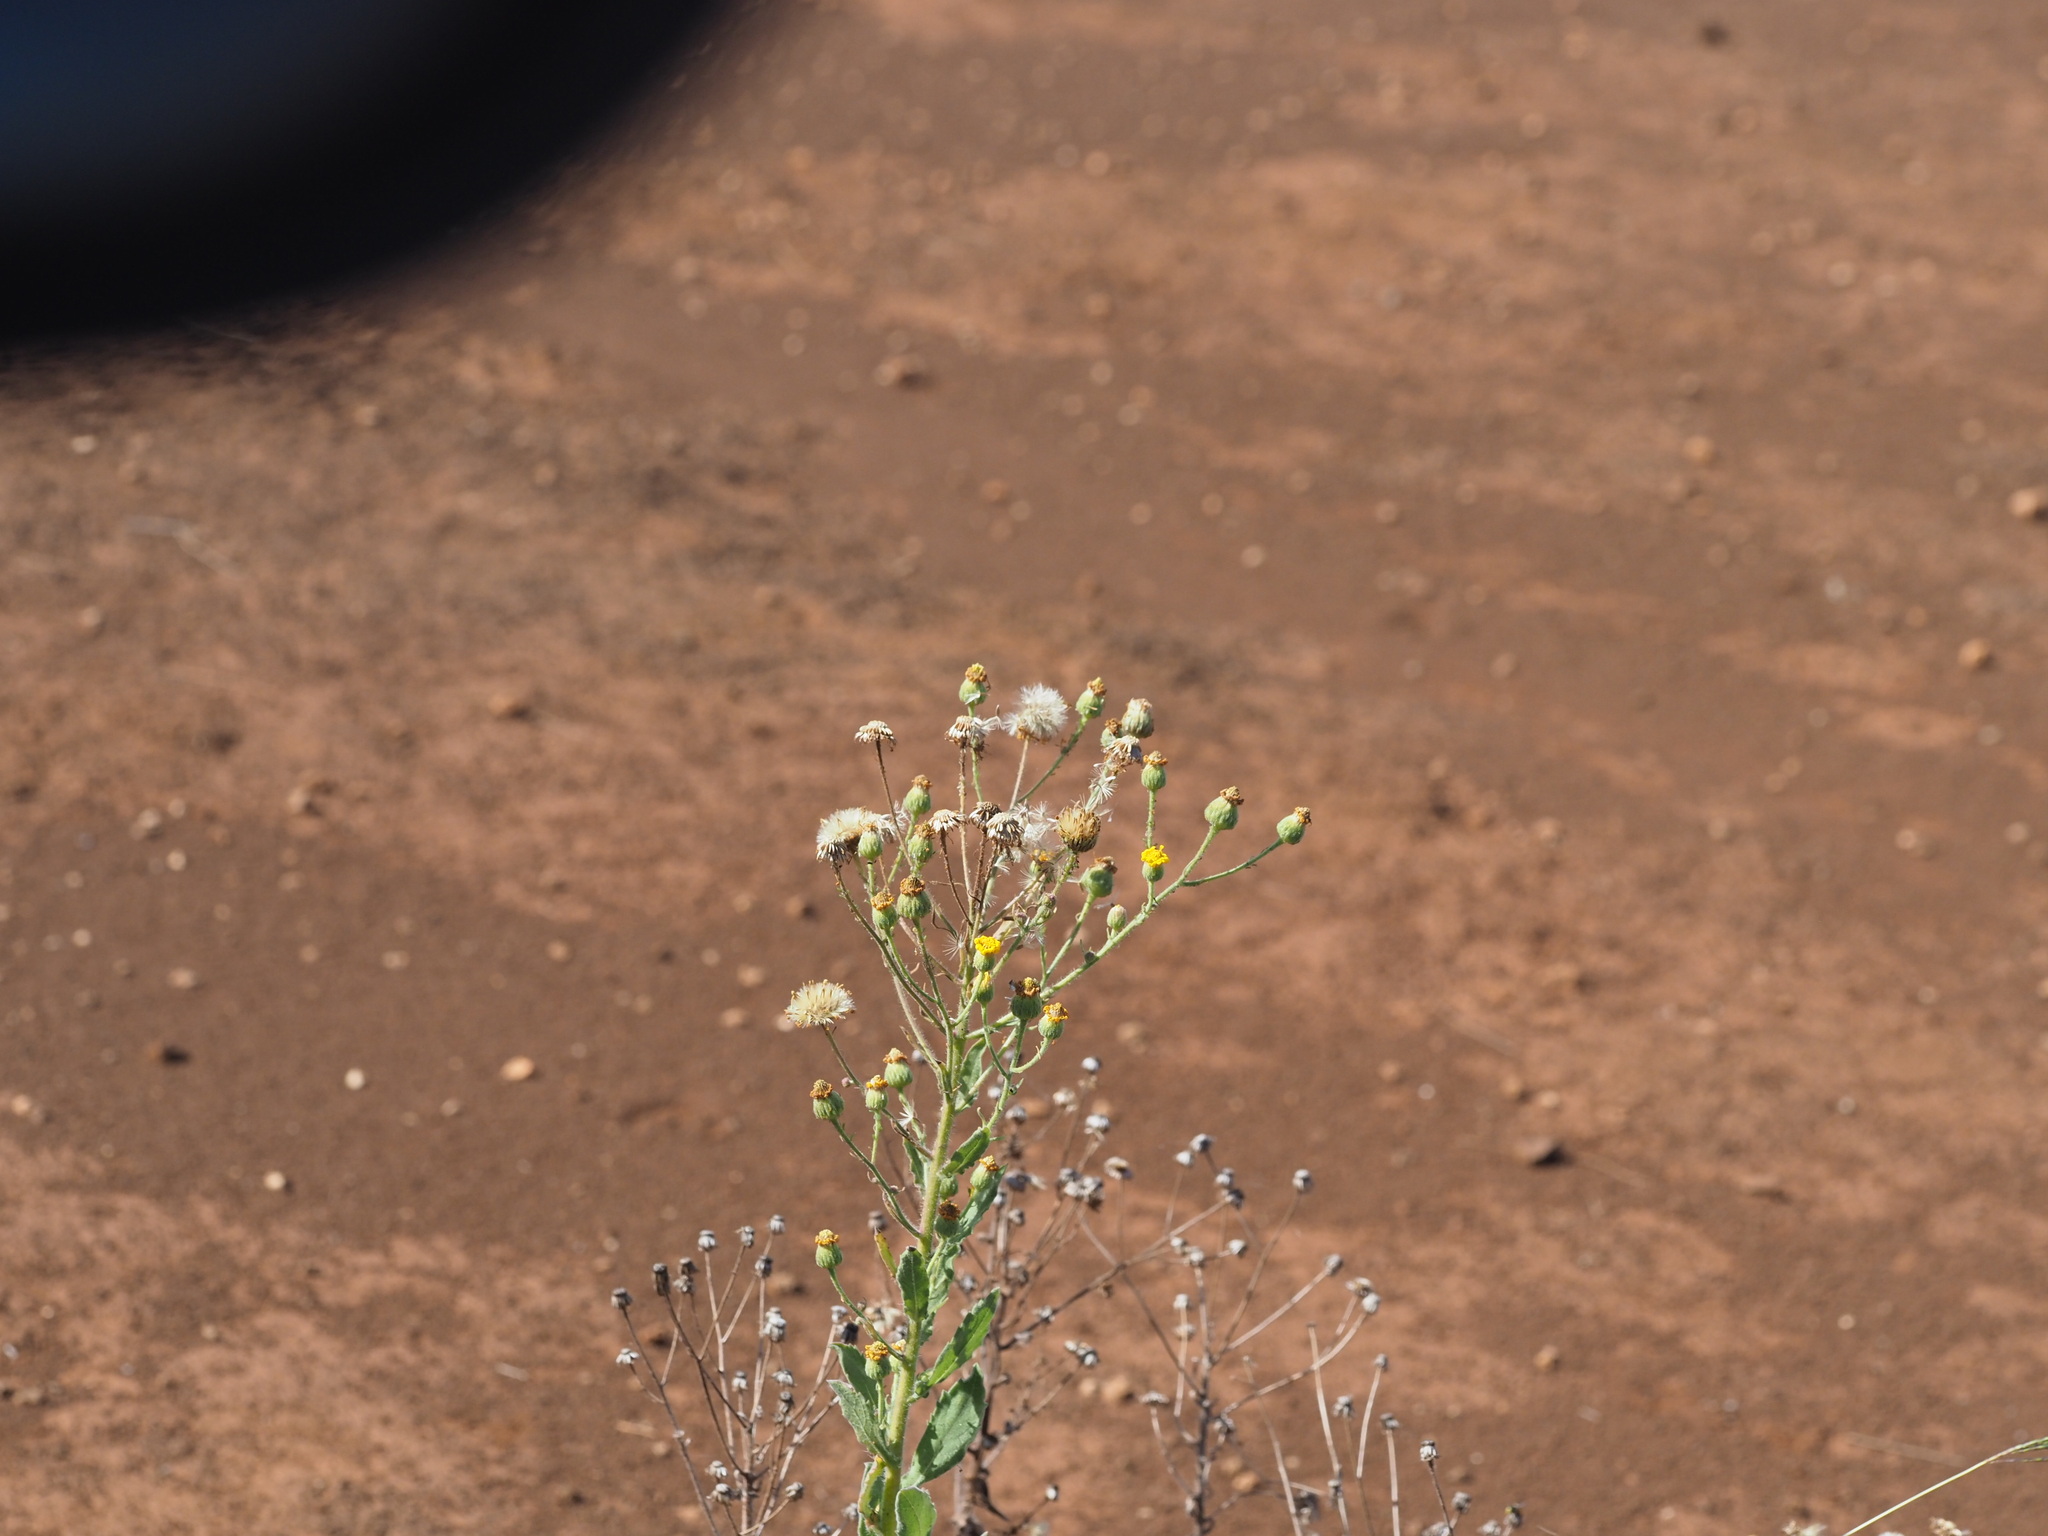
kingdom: Plantae
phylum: Tracheophyta
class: Magnoliopsida
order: Asterales
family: Asteraceae
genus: Heterotheca
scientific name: Heterotheca grandiflora
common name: Telegraphweed
